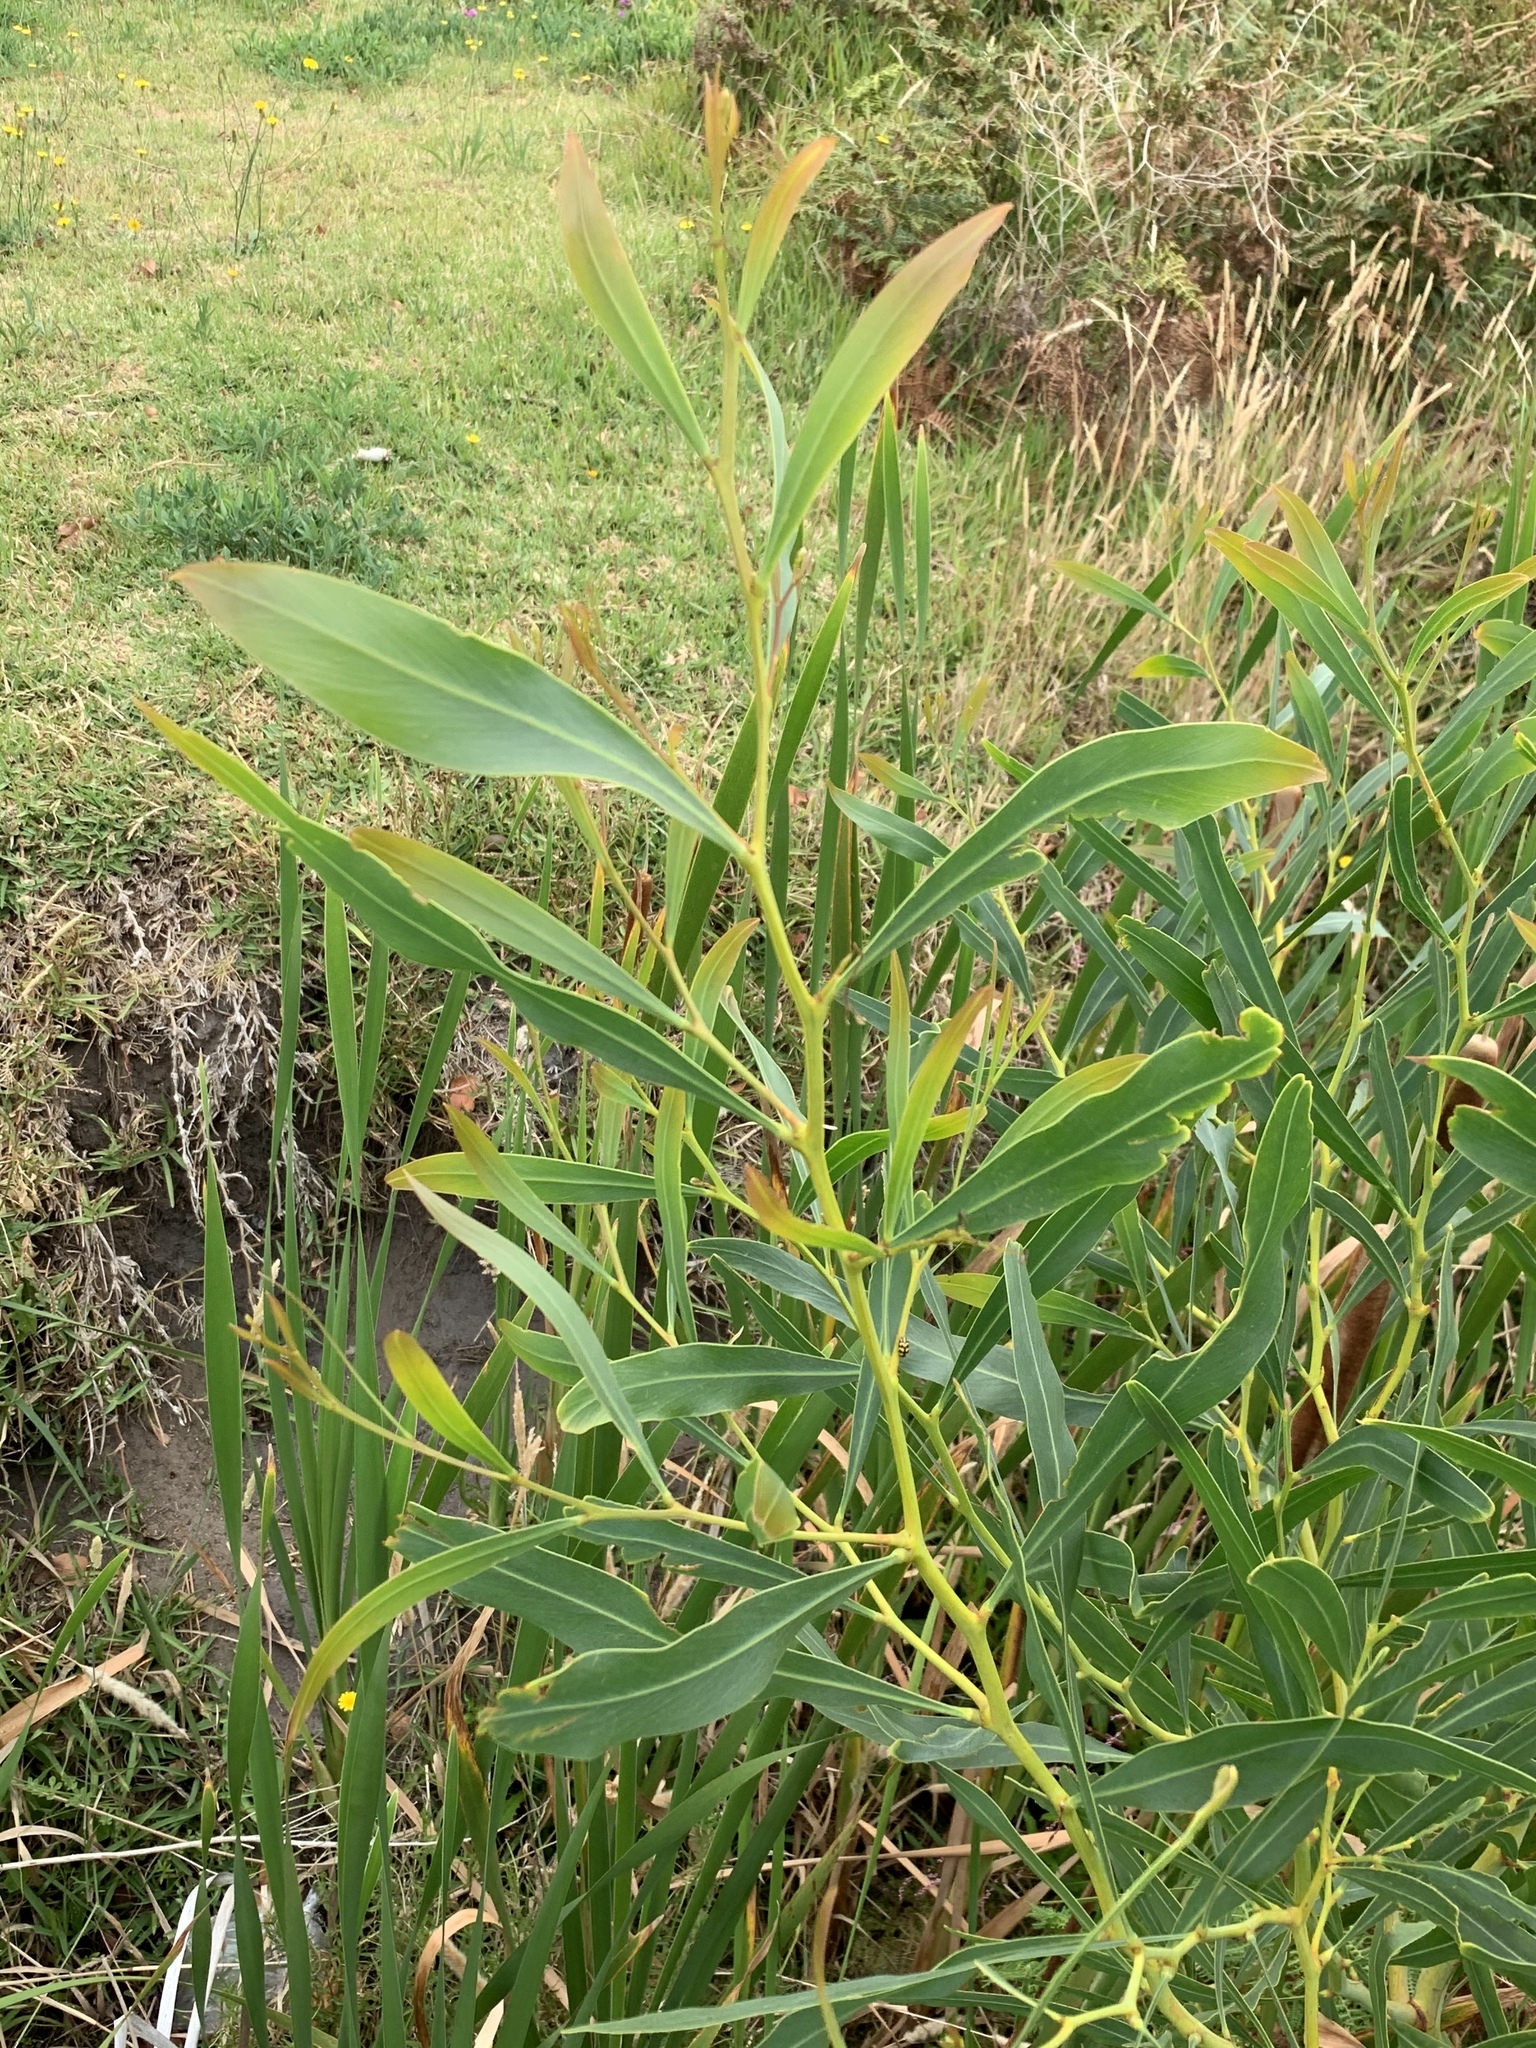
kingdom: Plantae
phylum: Tracheophyta
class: Magnoliopsida
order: Fabales
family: Fabaceae
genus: Acacia
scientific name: Acacia saligna
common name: Orange wattle
